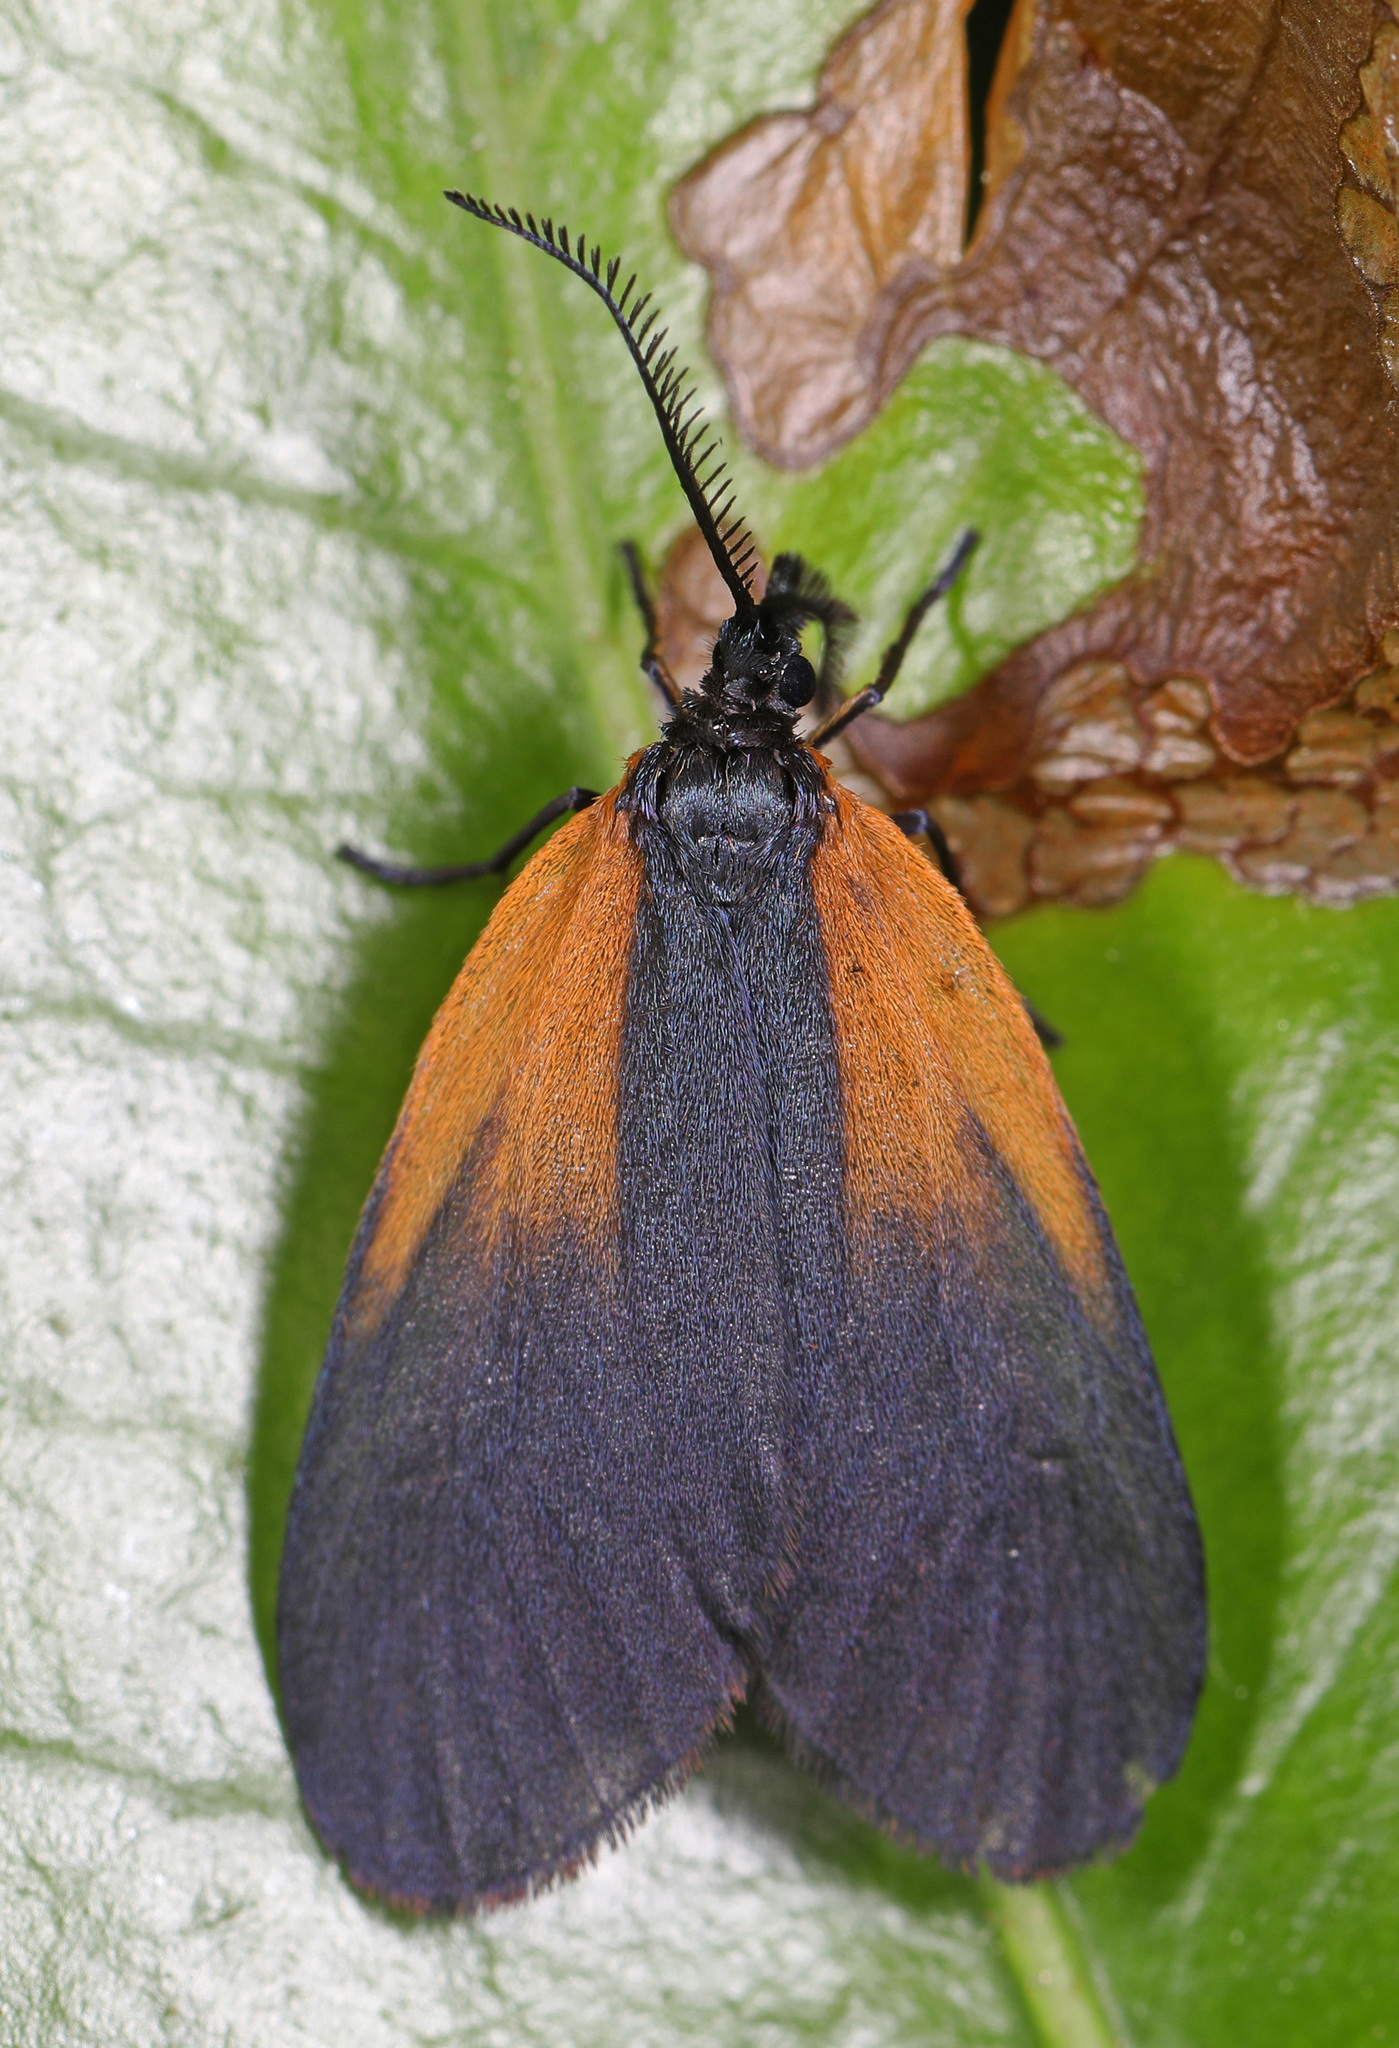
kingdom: Animalia
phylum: Arthropoda
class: Insecta
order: Lepidoptera
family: Zygaenidae
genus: Malthaca
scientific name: Malthaca dimidiata
